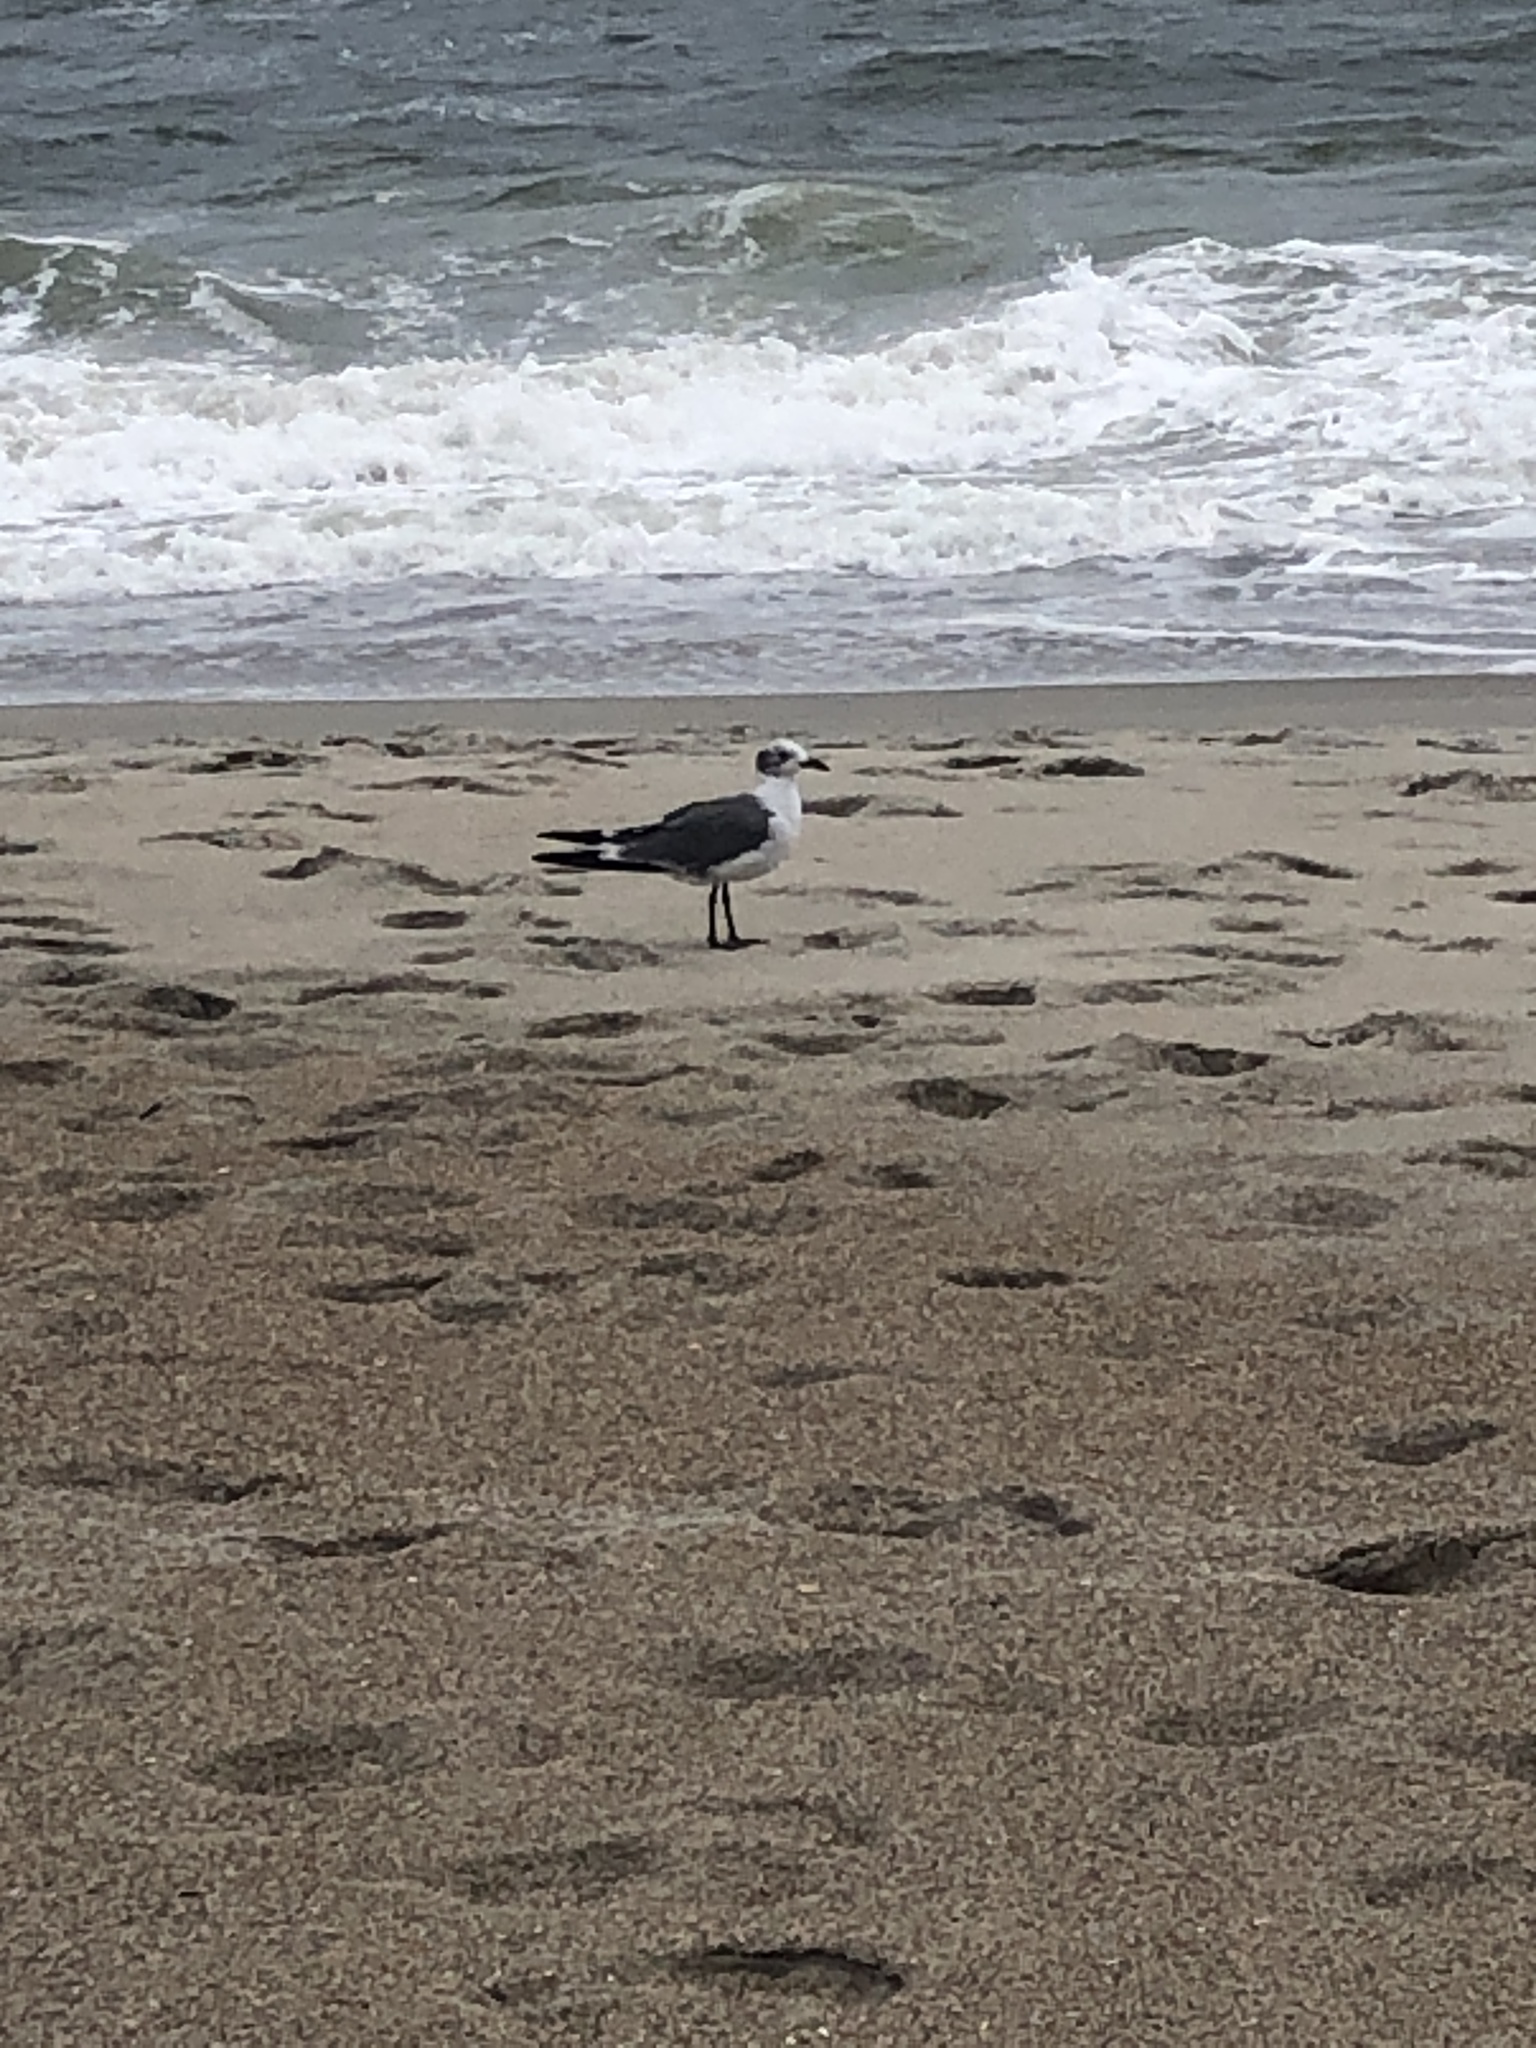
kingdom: Animalia
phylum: Chordata
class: Aves
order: Charadriiformes
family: Laridae
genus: Leucophaeus
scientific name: Leucophaeus atricilla
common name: Laughing gull
